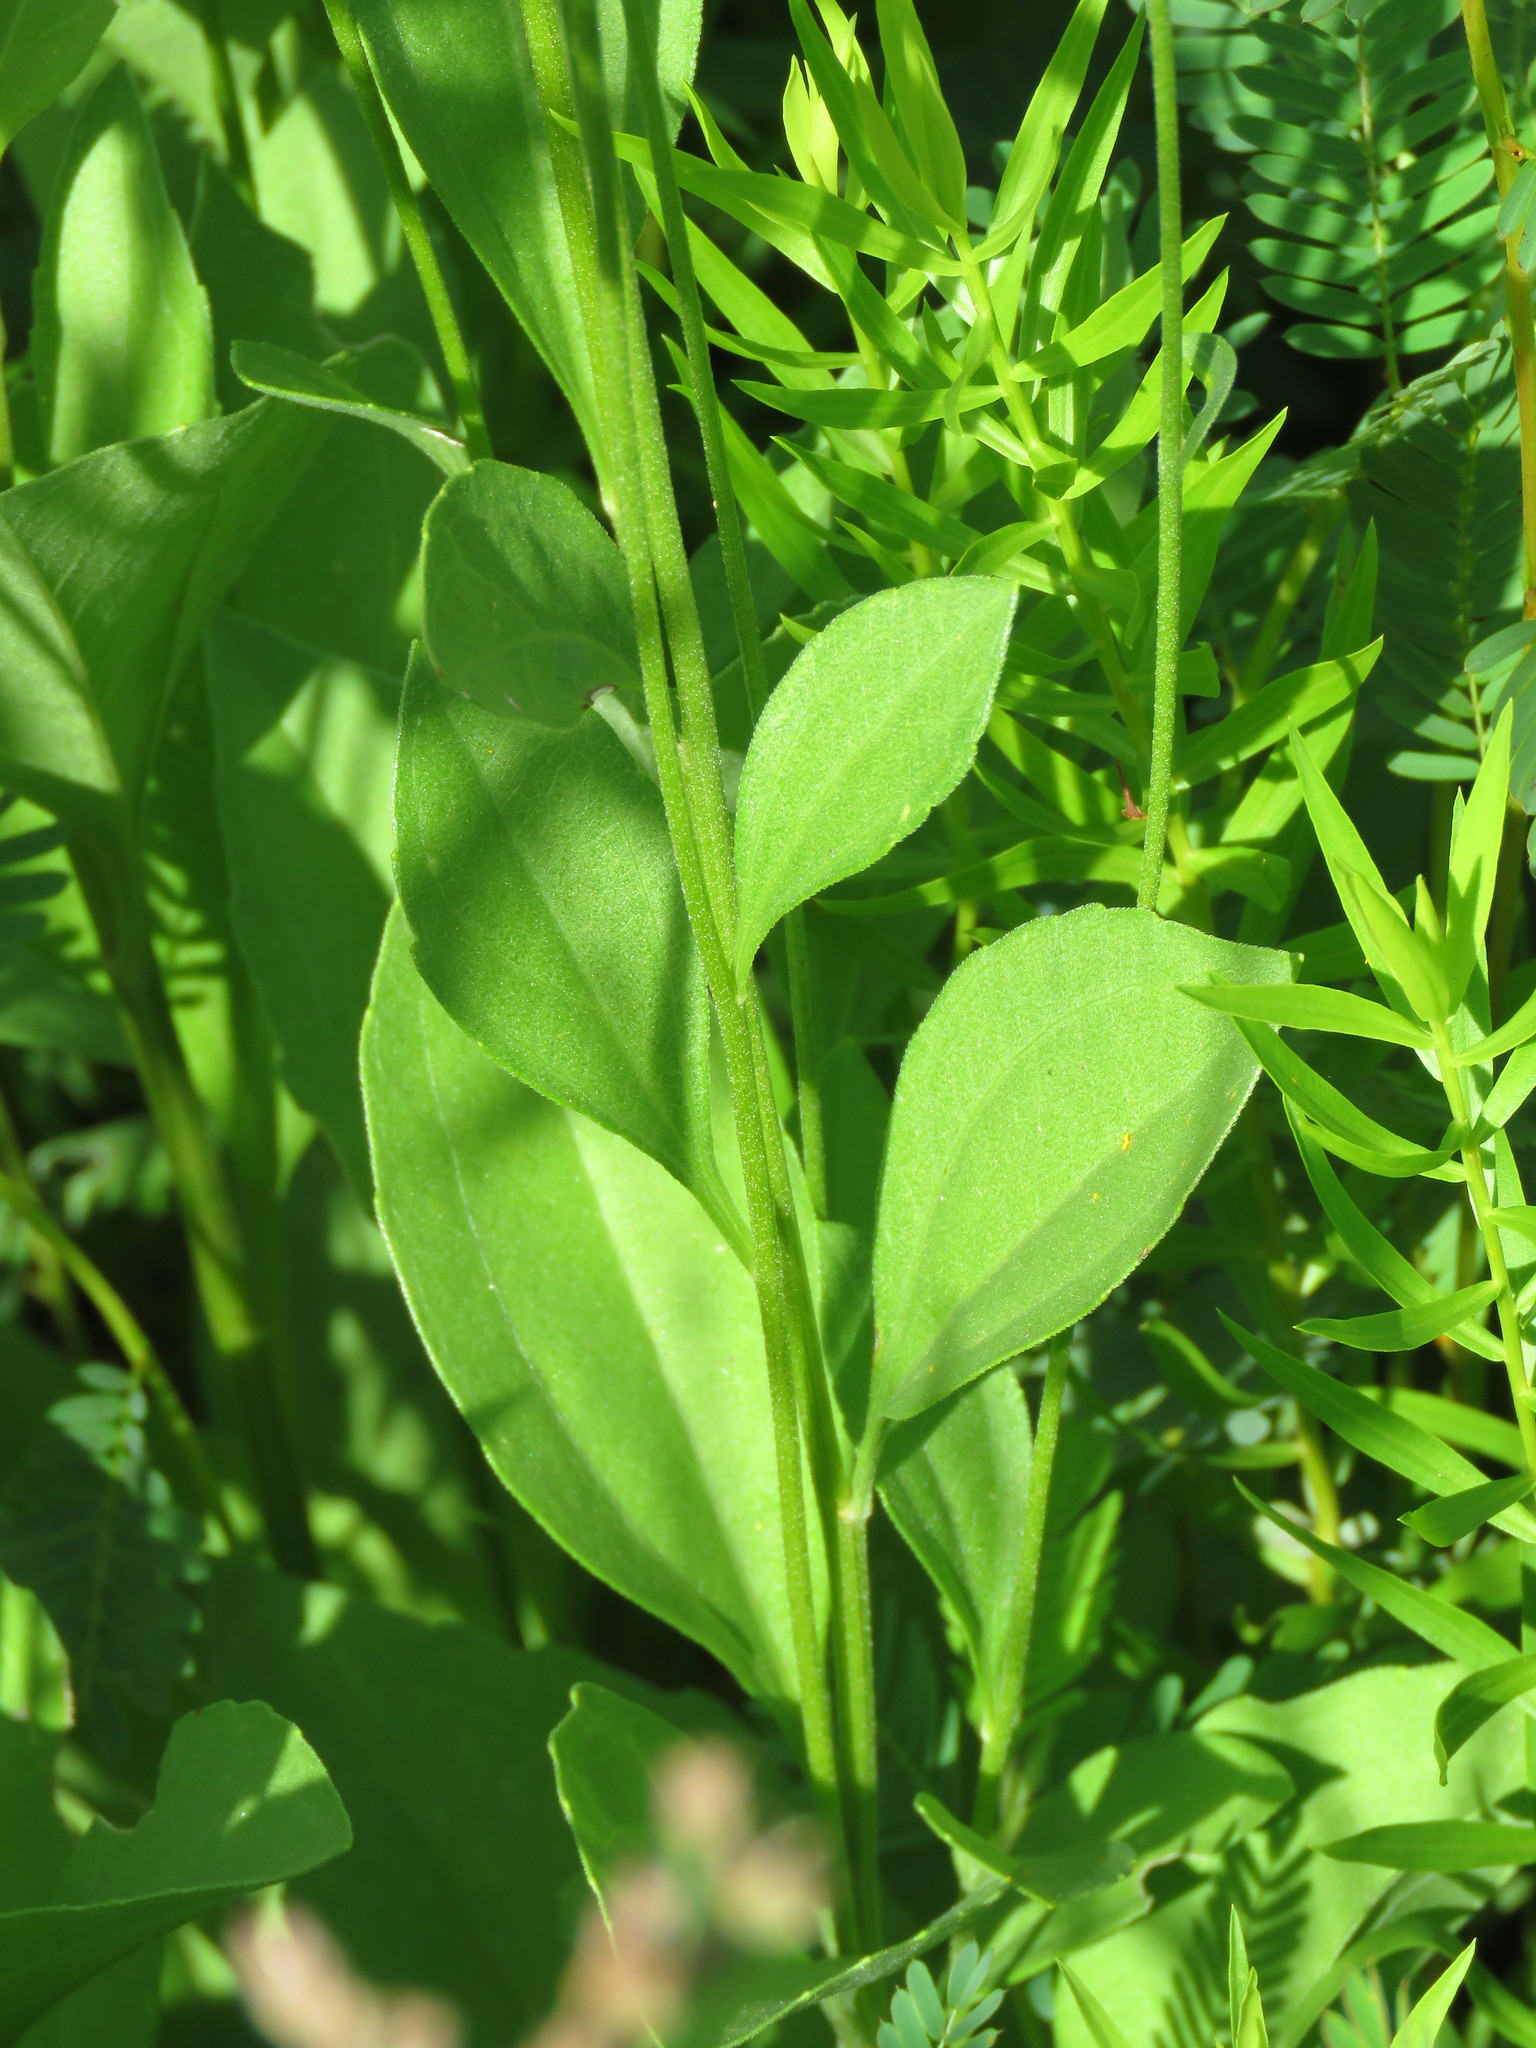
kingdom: Plantae
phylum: Tracheophyta
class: Magnoliopsida
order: Asterales
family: Asteraceae
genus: Rudbeckia
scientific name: Rudbeckia grandiflora
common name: Large-flowered coneflower
